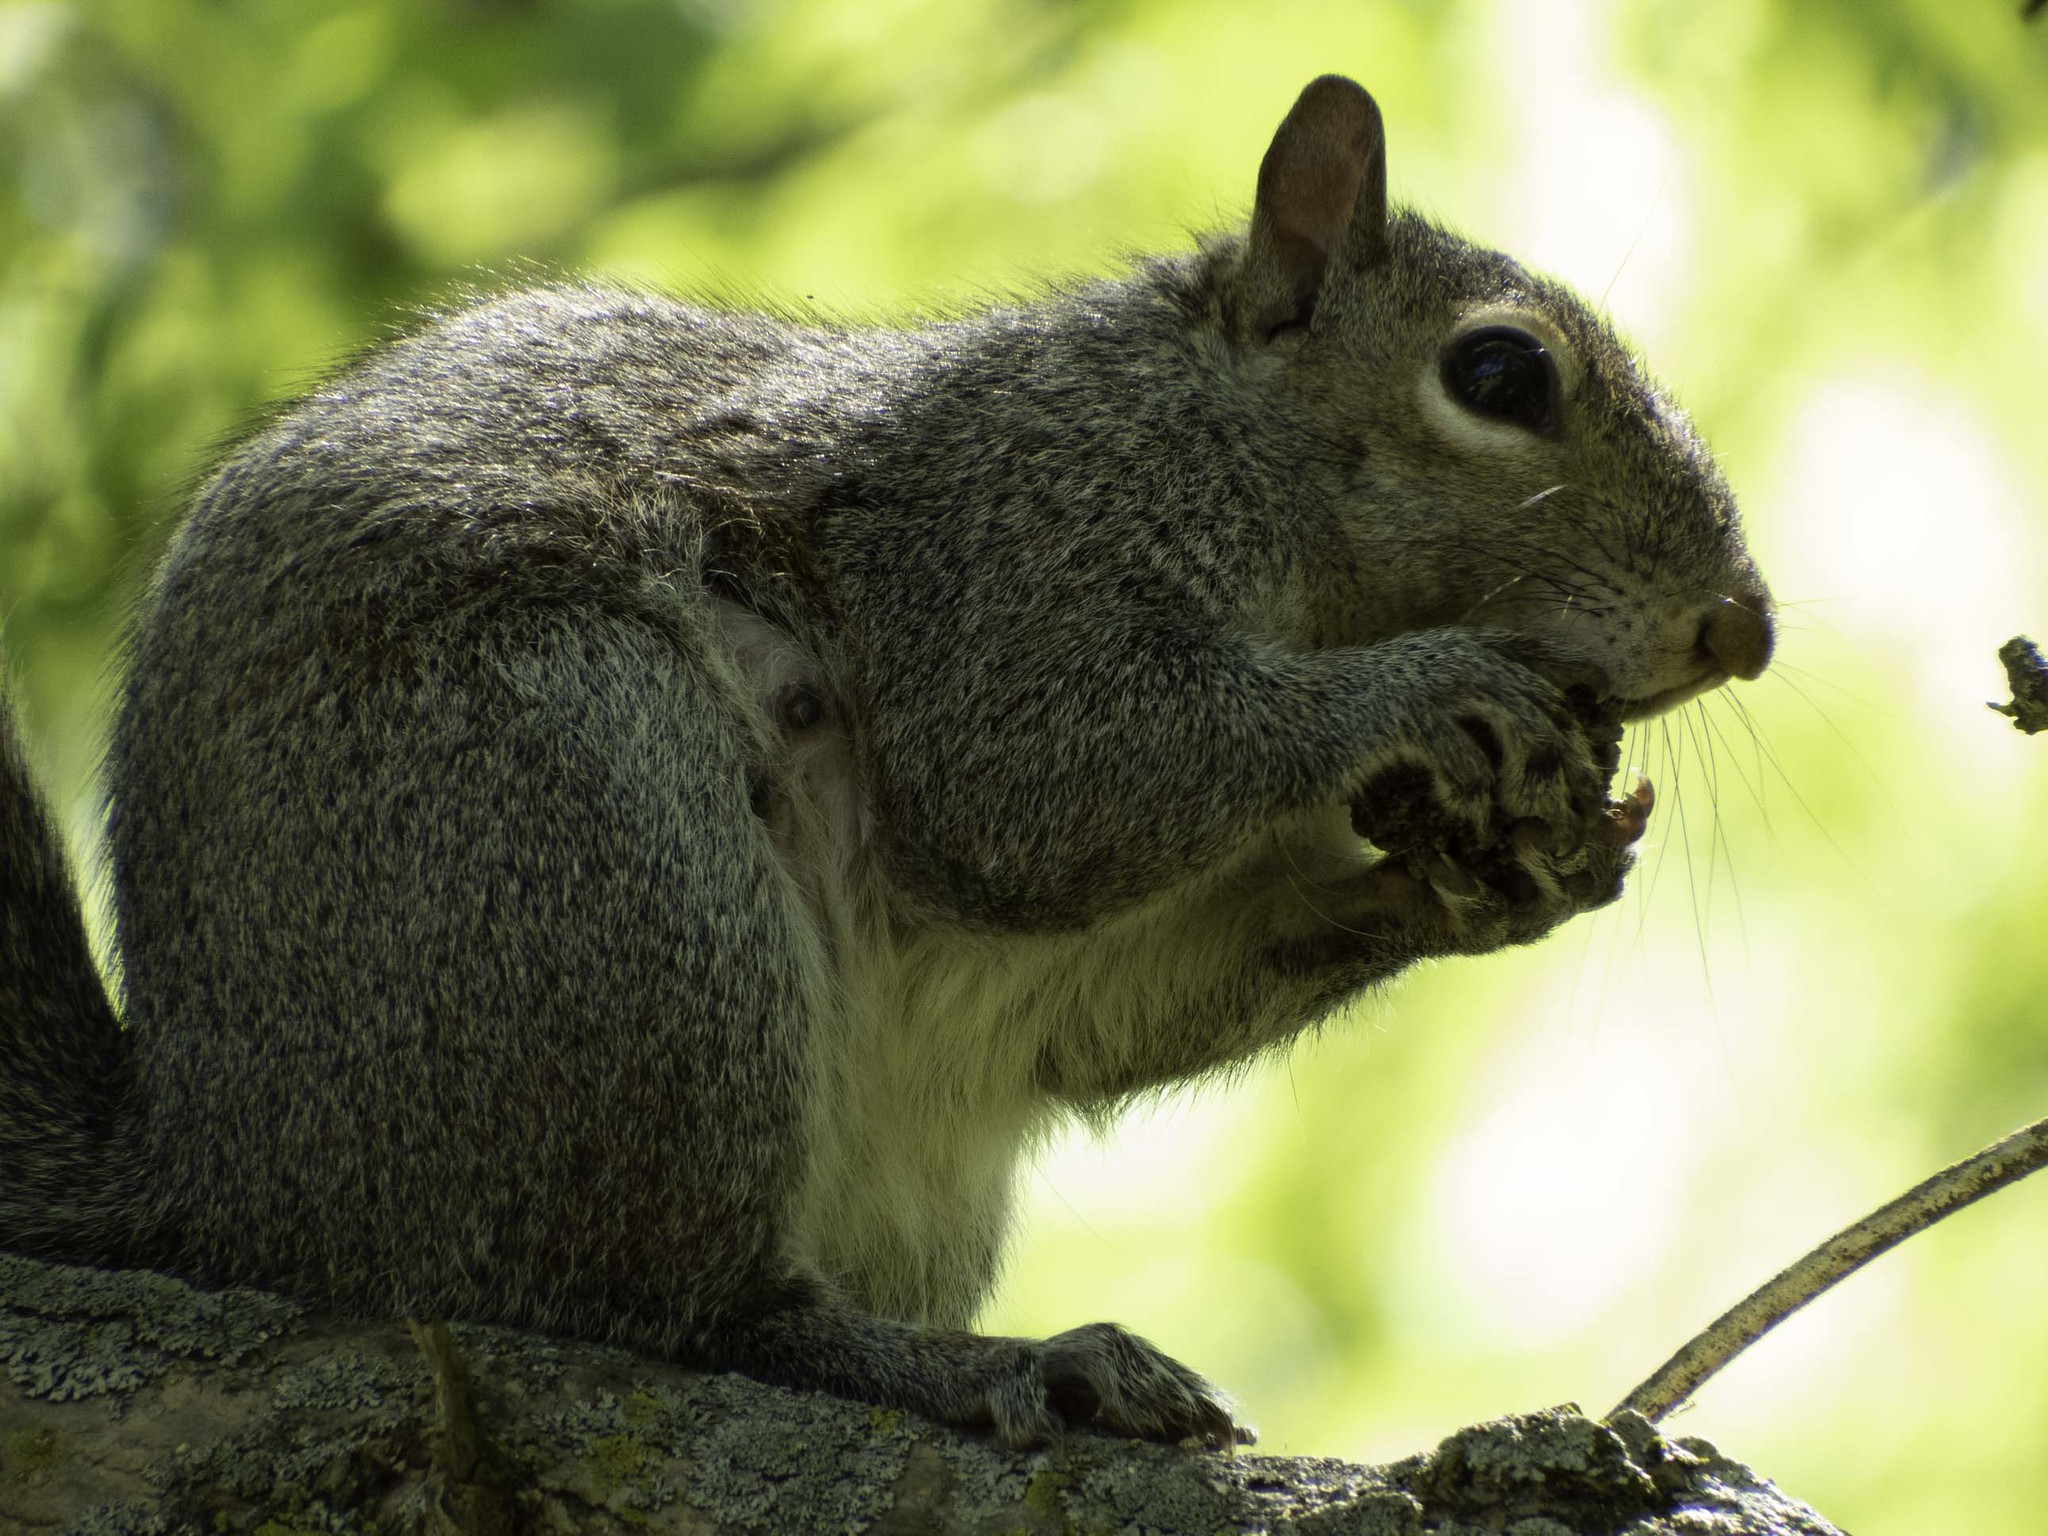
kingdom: Animalia
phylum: Chordata
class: Mammalia
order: Rodentia
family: Sciuridae
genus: Sciurus
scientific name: Sciurus carolinensis
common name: Eastern gray squirrel
